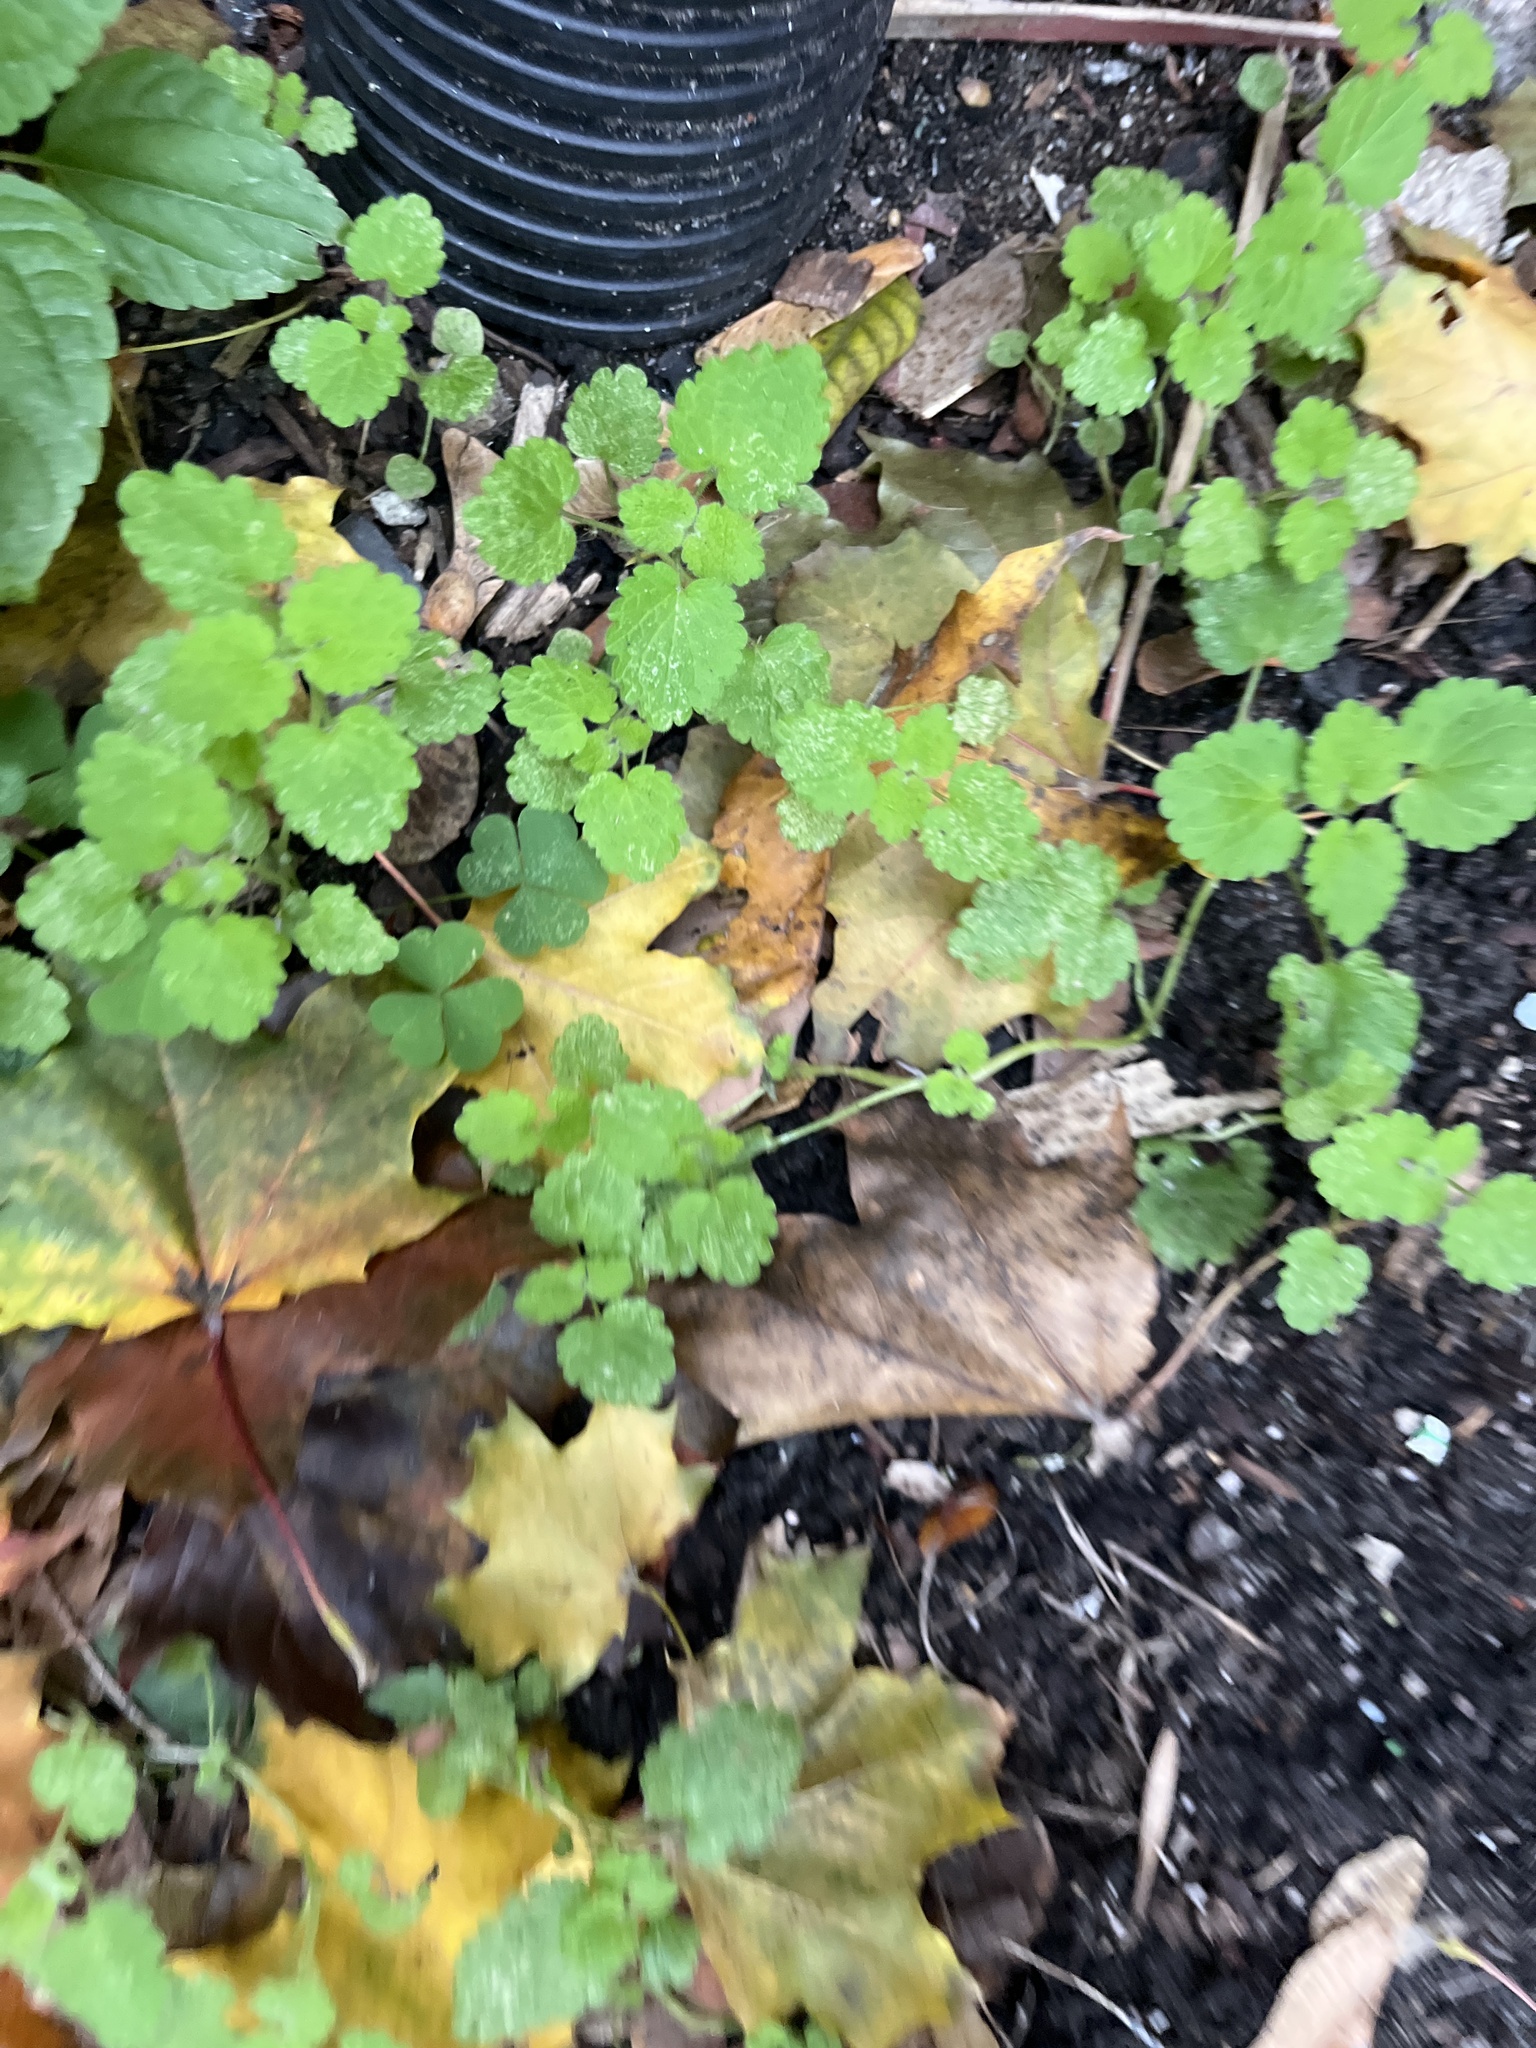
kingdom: Plantae
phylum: Tracheophyta
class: Magnoliopsida
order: Lamiales
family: Lamiaceae
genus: Lamium
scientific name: Lamium purpureum
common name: Red dead-nettle
